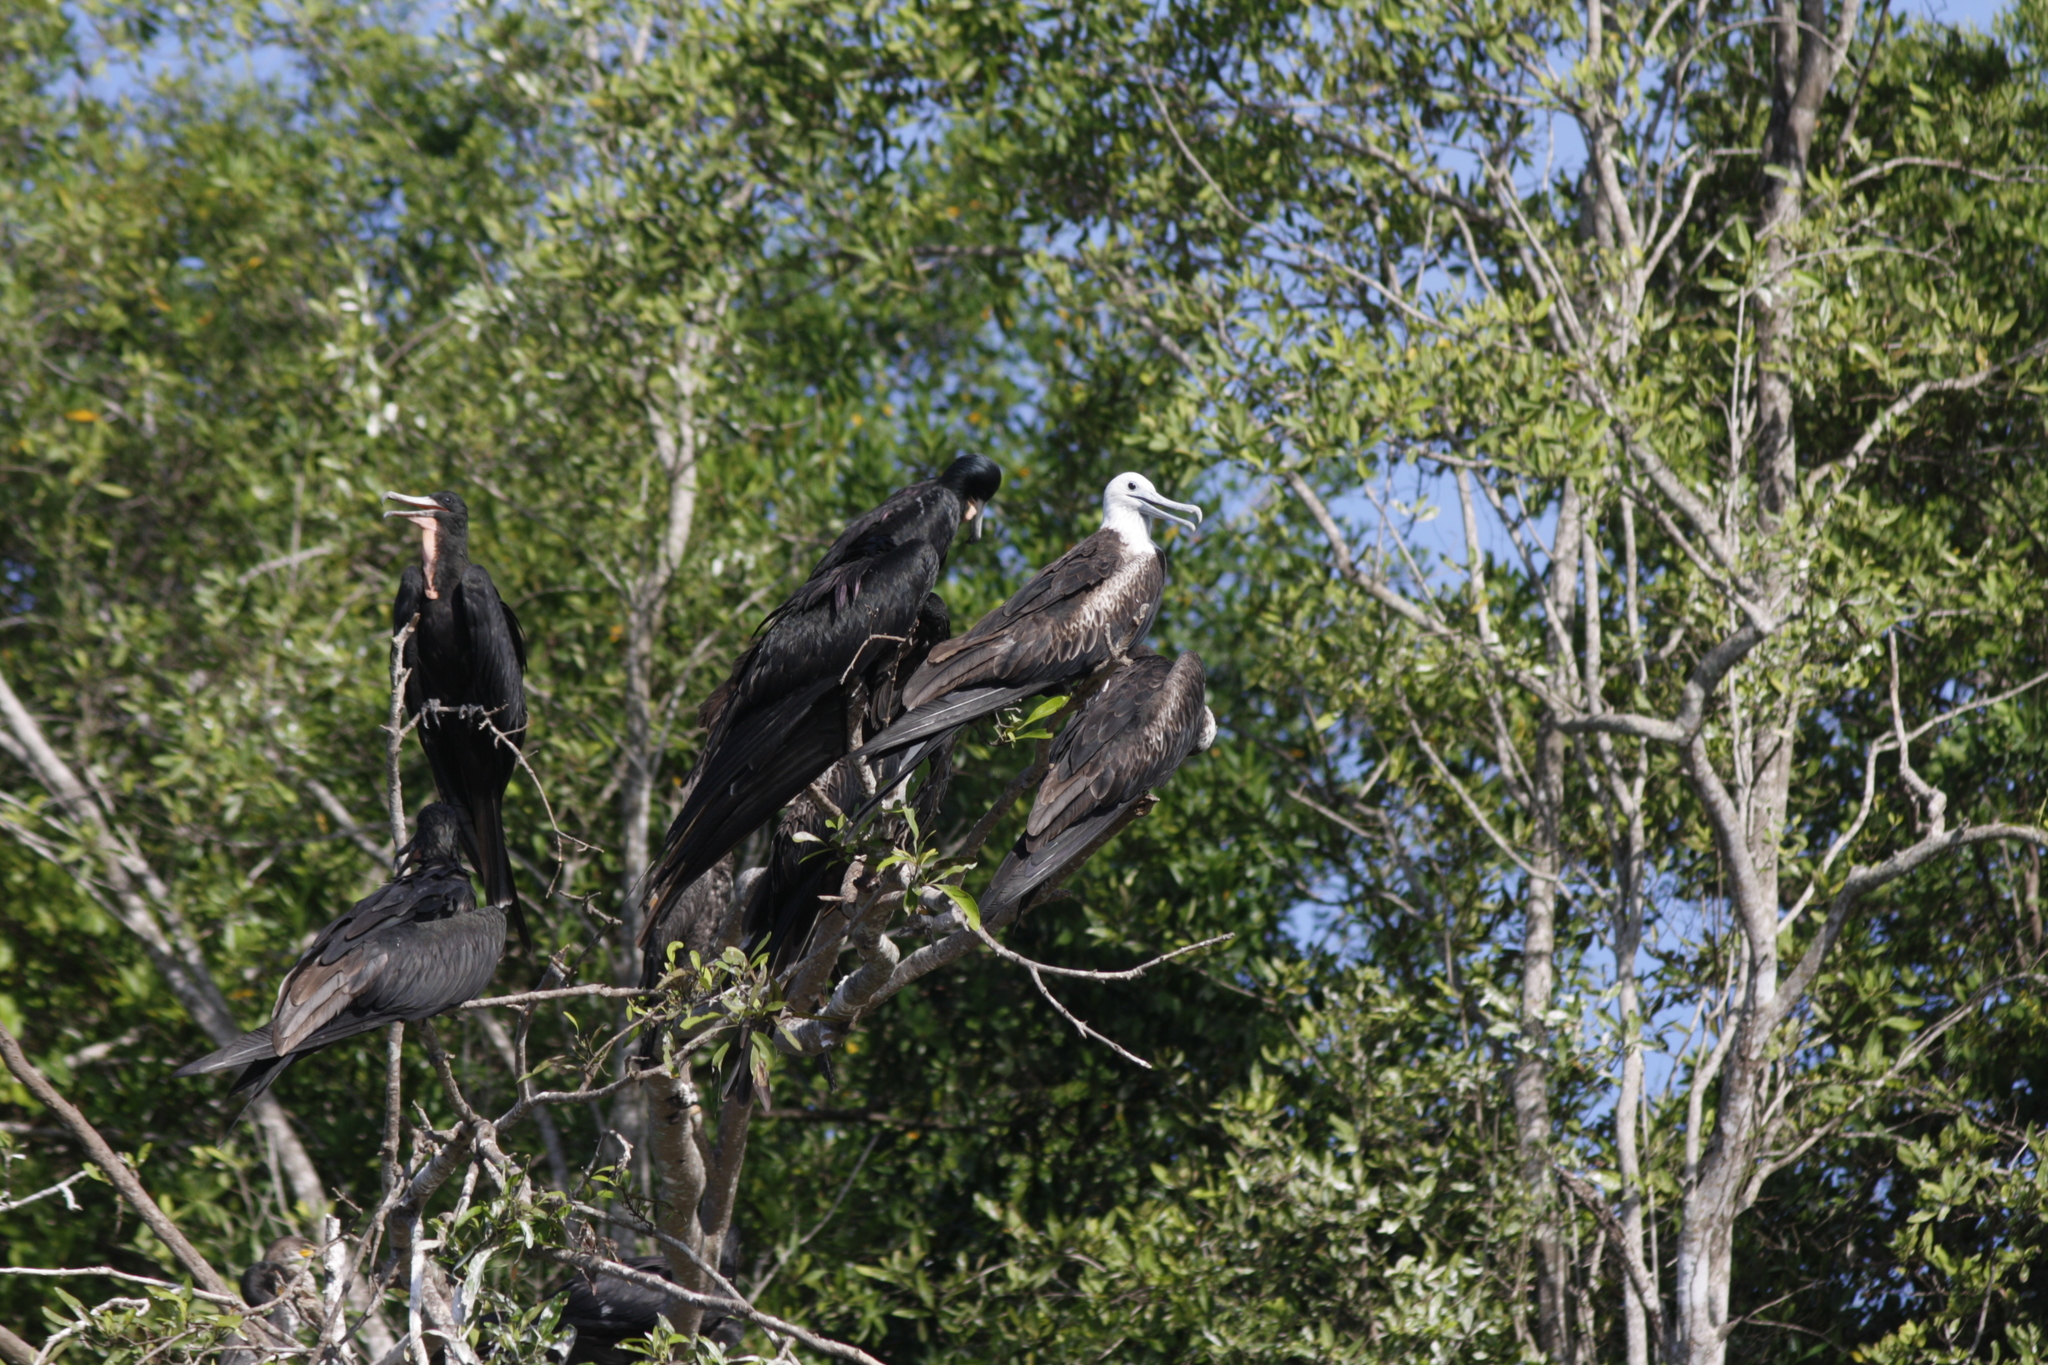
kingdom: Animalia
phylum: Chordata
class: Aves
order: Suliformes
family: Fregatidae
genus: Fregata
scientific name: Fregata magnificens
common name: Magnificent frigatebird
